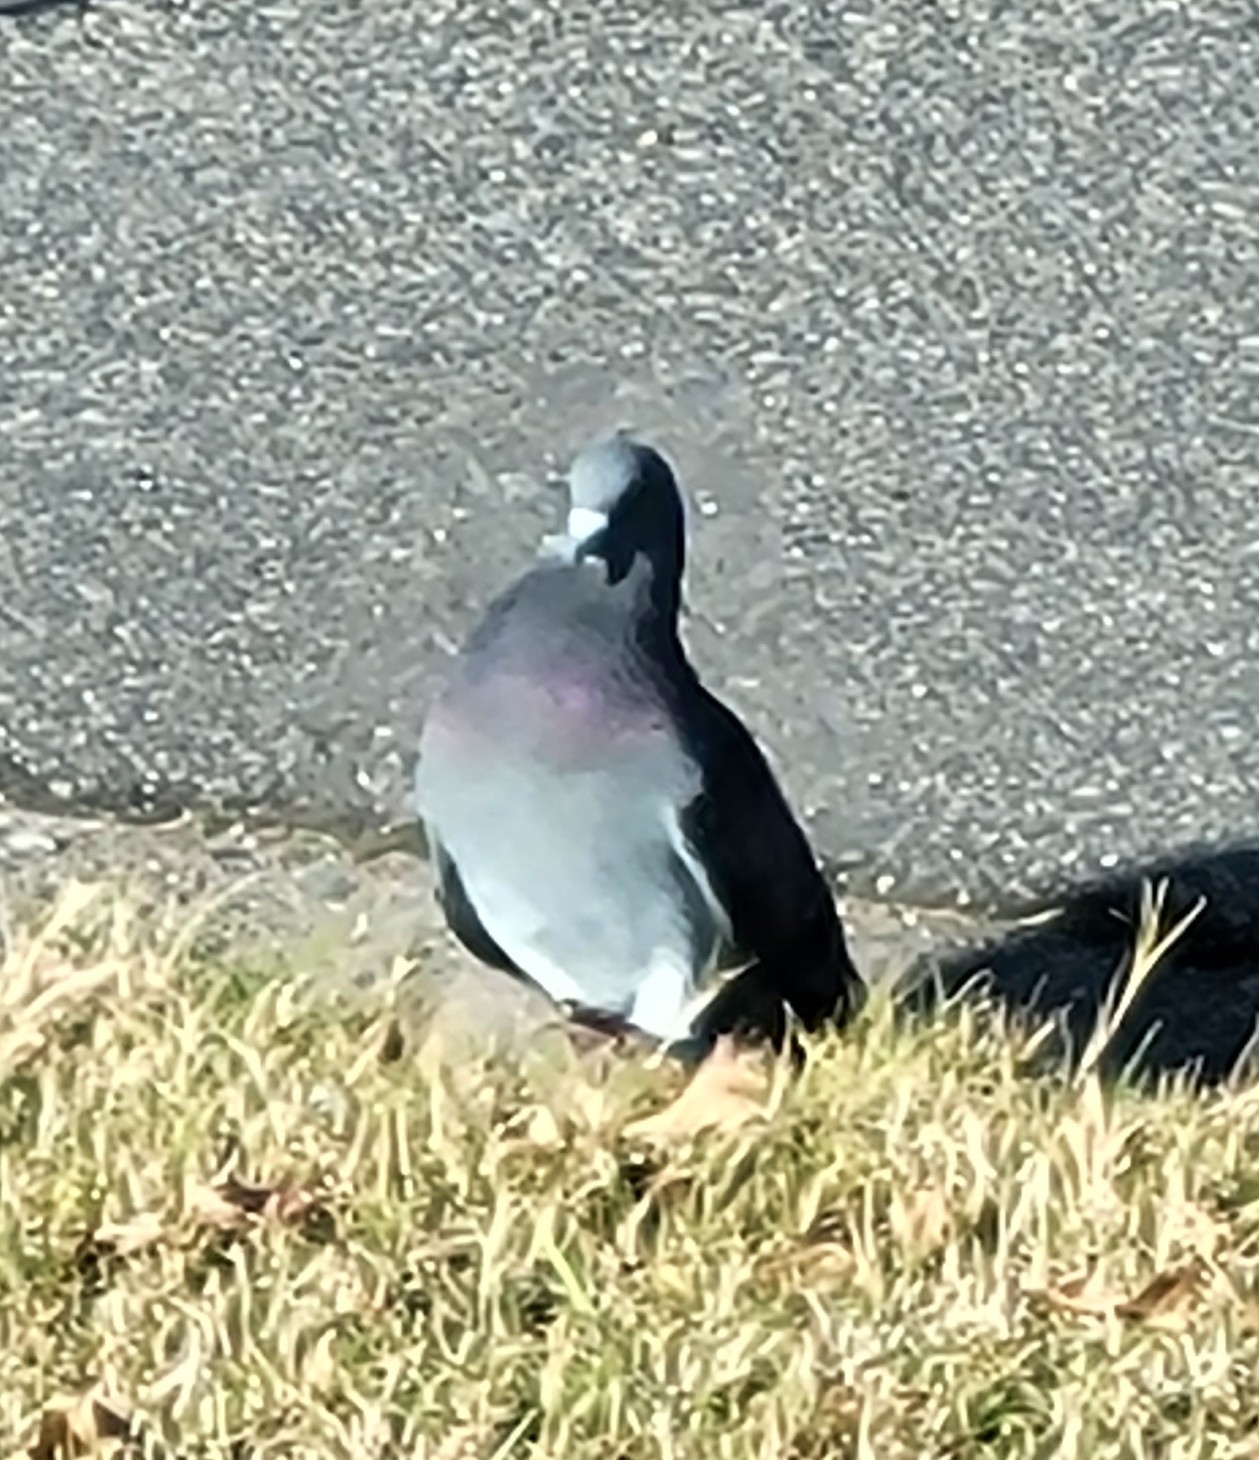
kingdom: Animalia
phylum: Chordata
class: Aves
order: Columbiformes
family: Columbidae
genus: Columba
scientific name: Columba livia
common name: Rock pigeon
